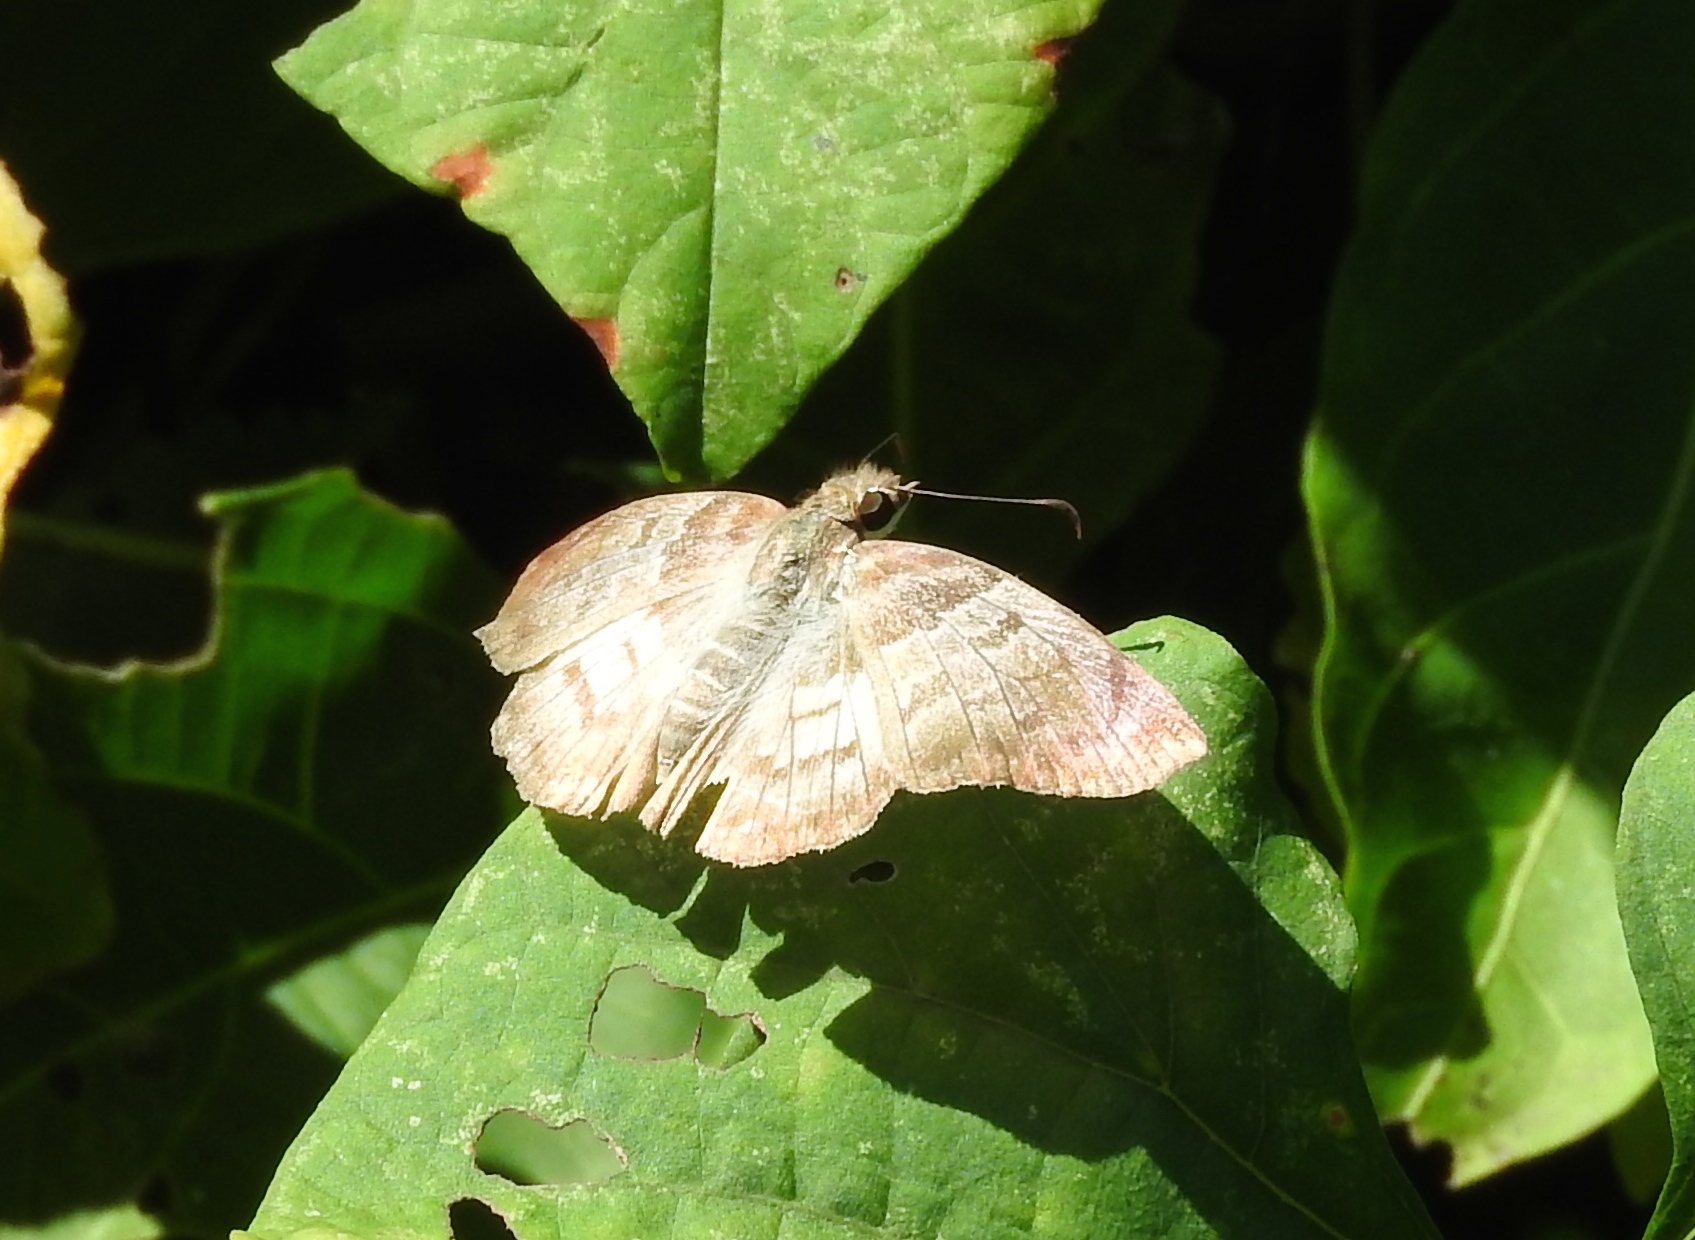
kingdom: Animalia
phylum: Arthropoda
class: Insecta
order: Lepidoptera
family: Hesperiidae
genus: Mylon
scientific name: Mylon pelopidas
